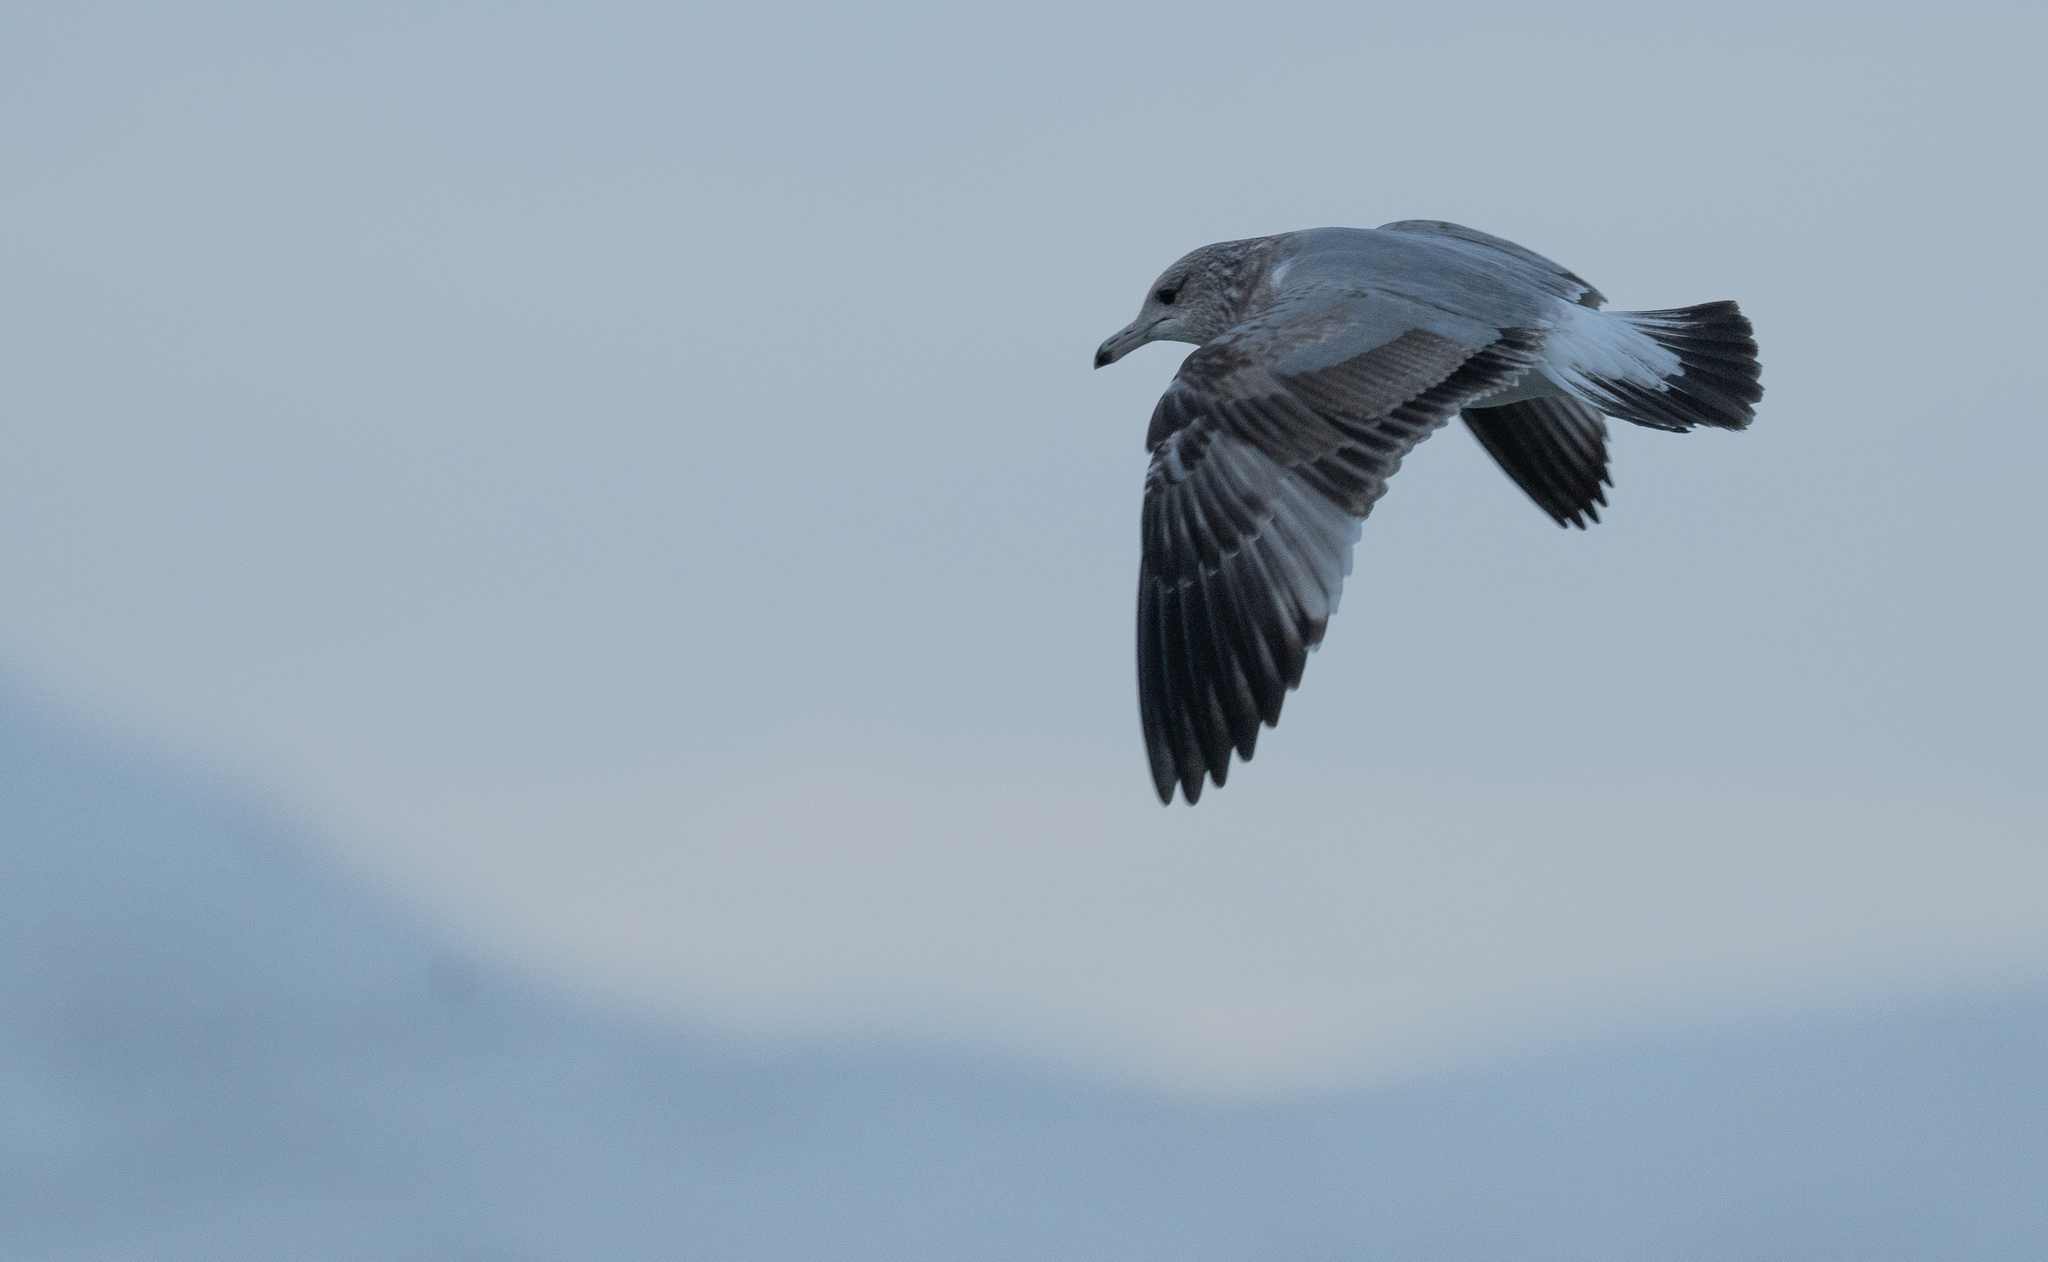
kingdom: Animalia
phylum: Chordata
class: Aves
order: Charadriiformes
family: Laridae
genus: Larus
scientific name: Larus californicus
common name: California gull
